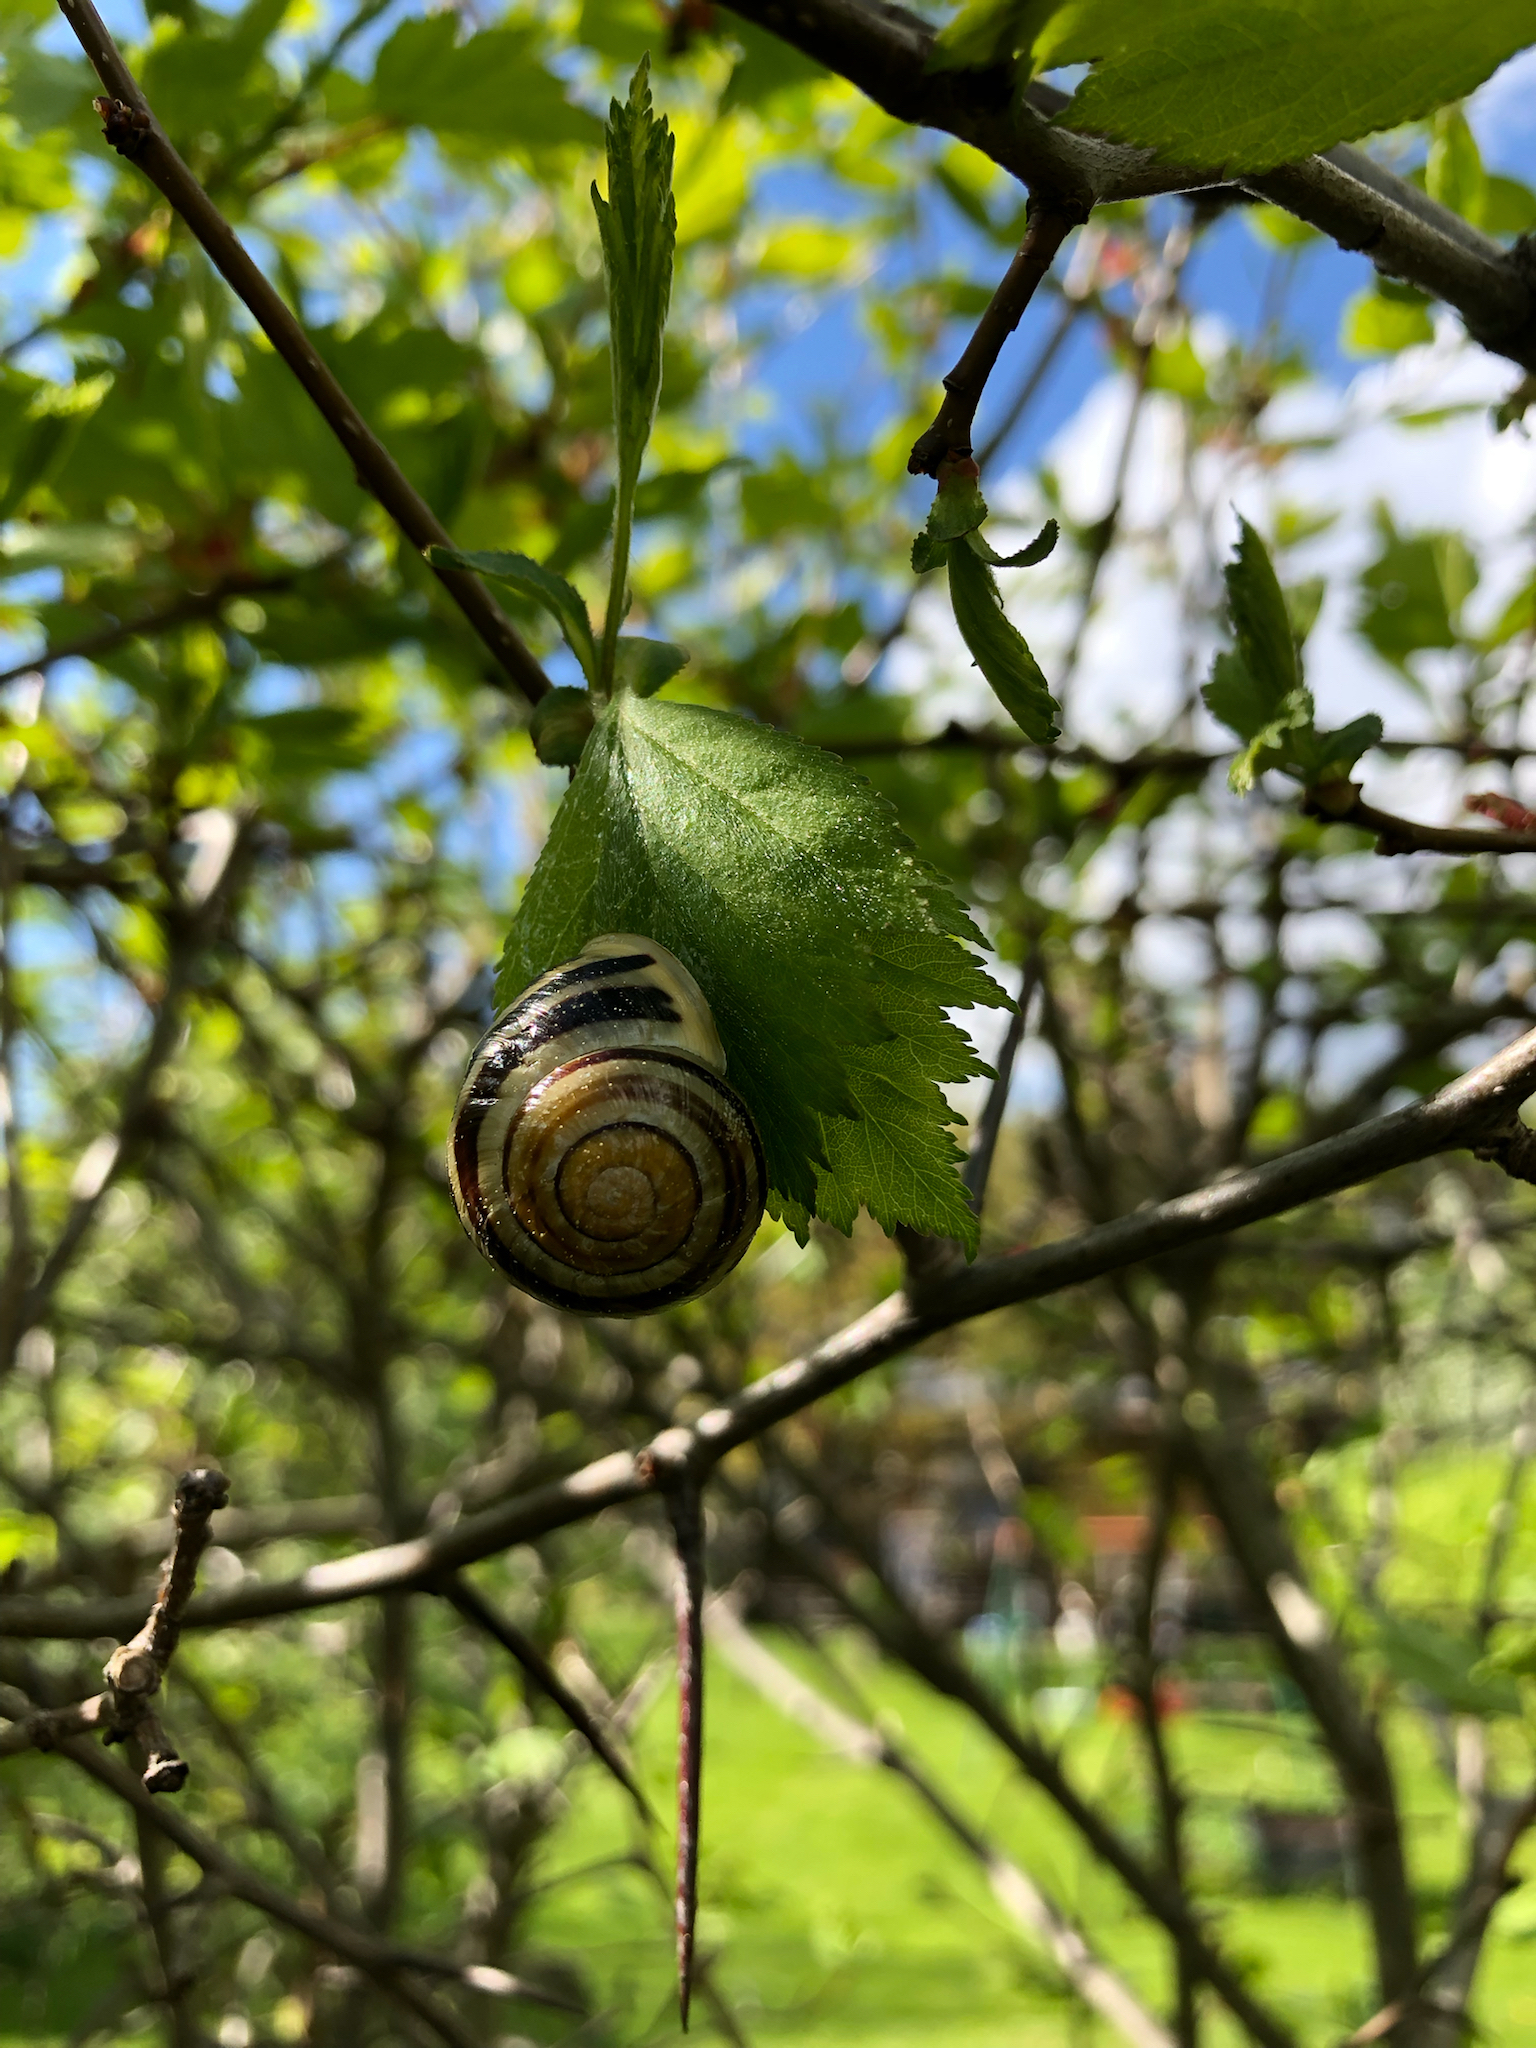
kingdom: Animalia
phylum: Mollusca
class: Gastropoda
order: Stylommatophora
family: Helicidae
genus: Cepaea
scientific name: Cepaea hortensis
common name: White-lip gardensnail
